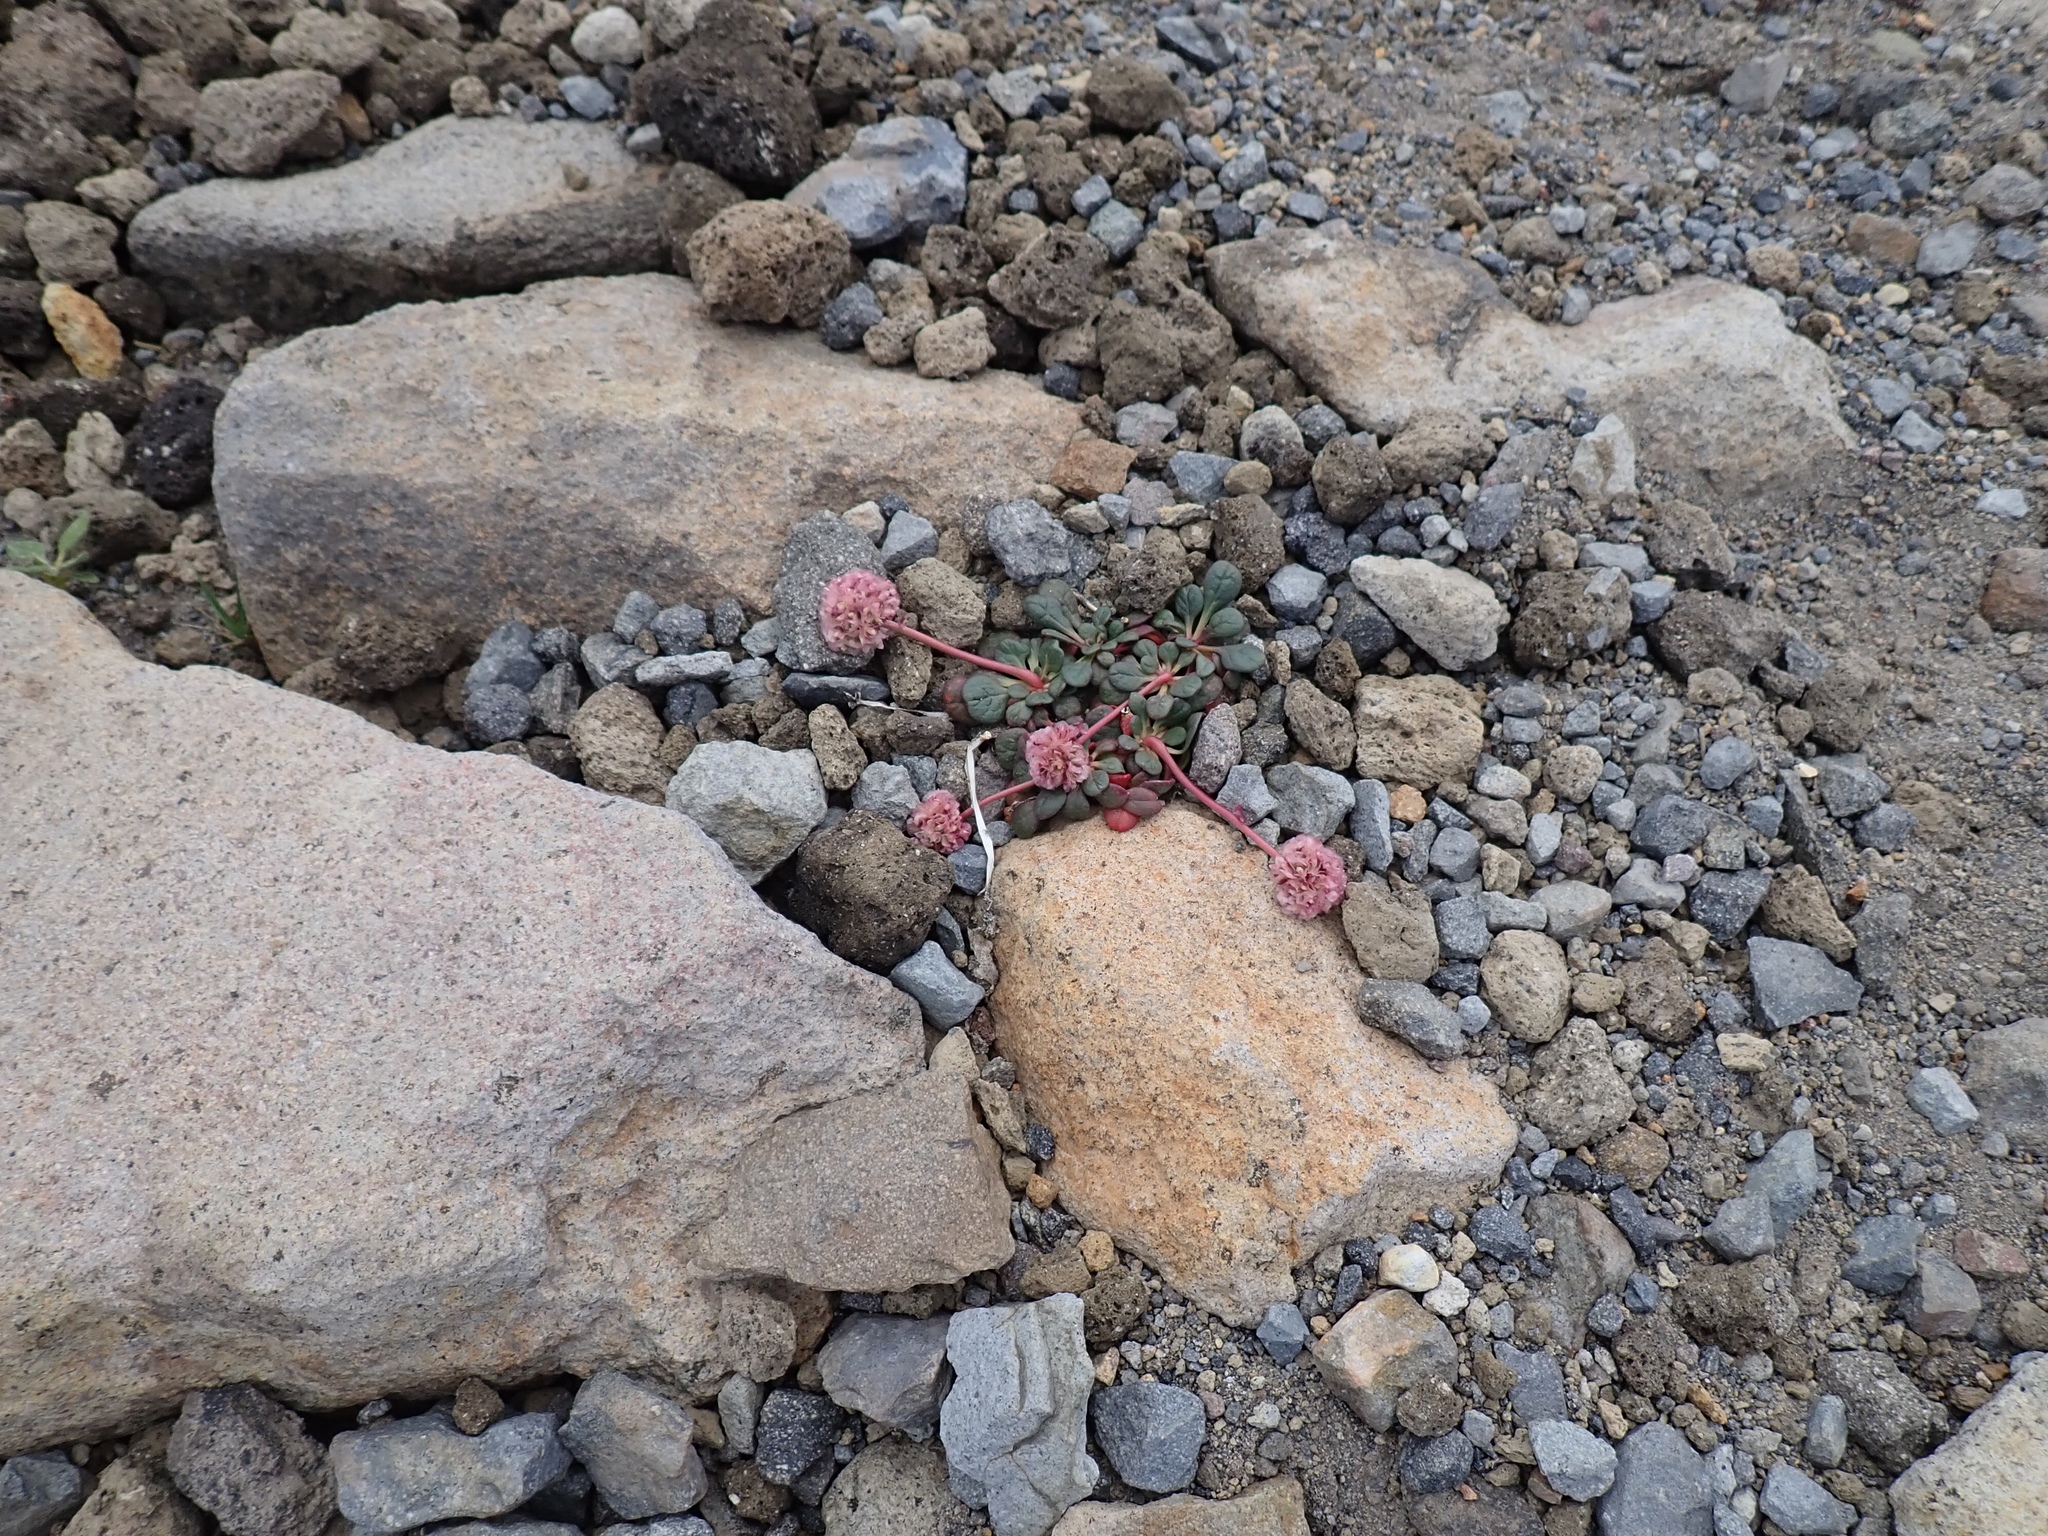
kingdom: Plantae
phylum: Tracheophyta
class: Magnoliopsida
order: Caryophyllales
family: Montiaceae
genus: Calyptridium
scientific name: Calyptridium umbellatum
